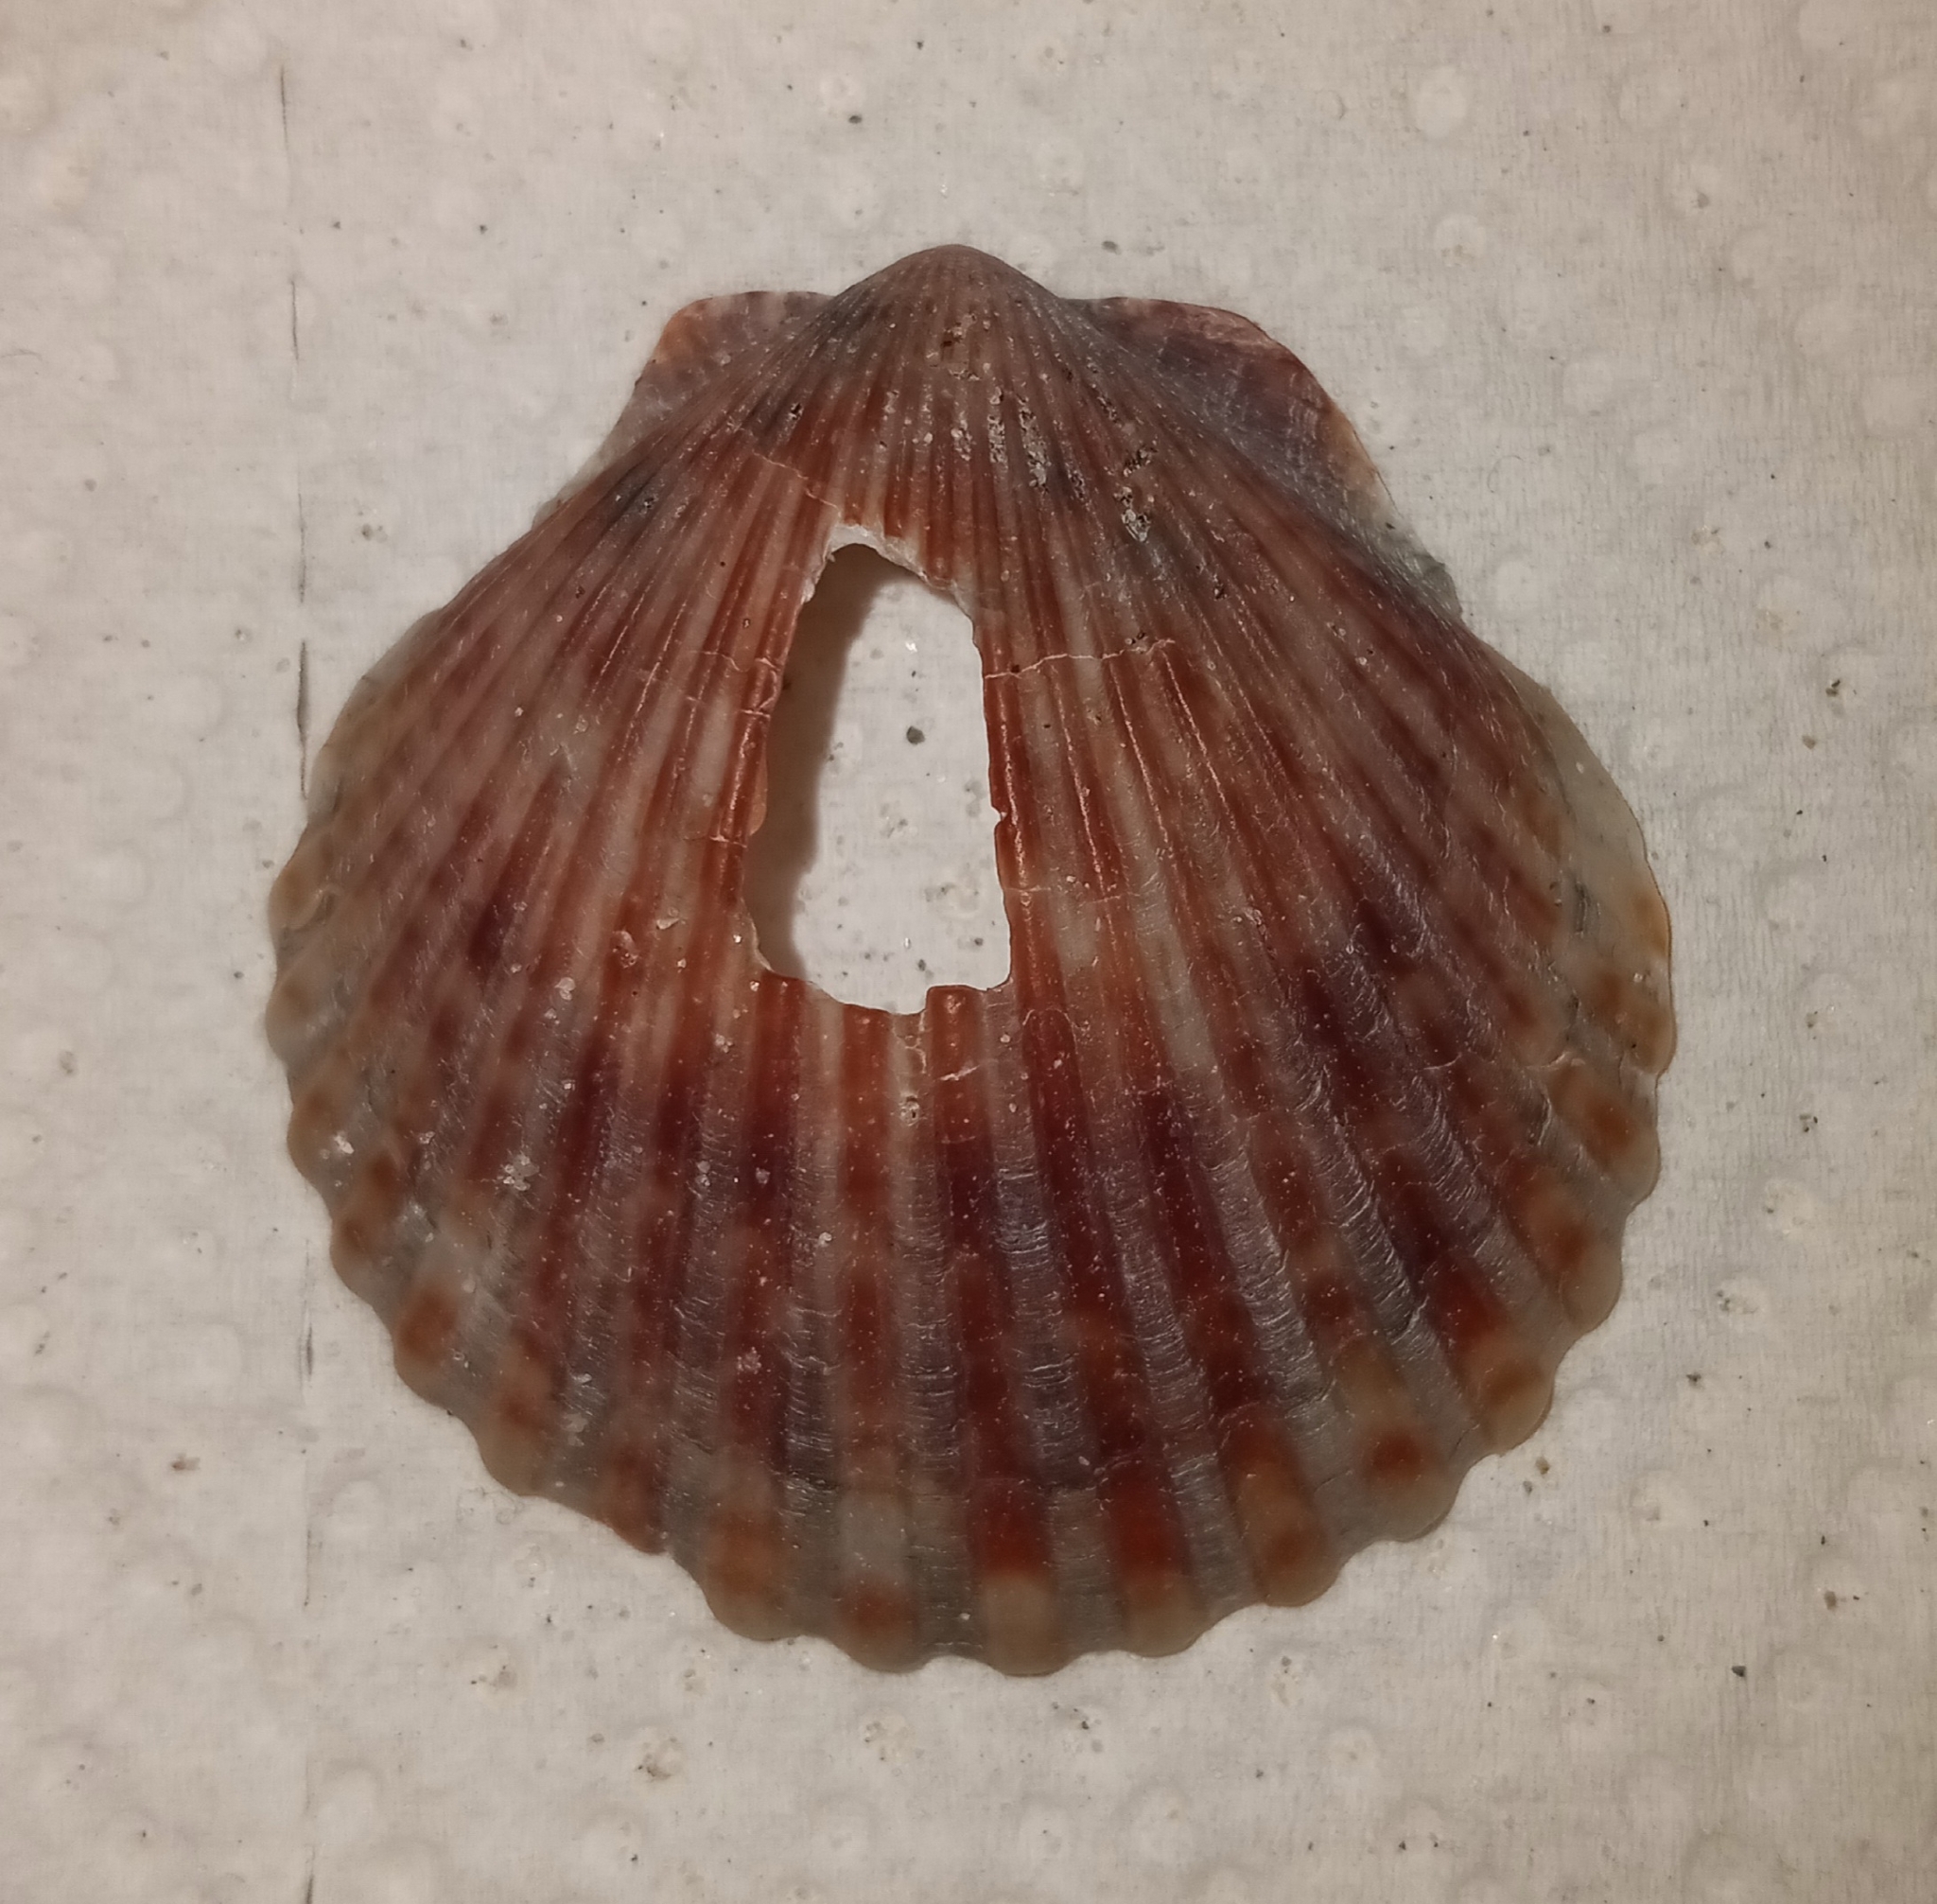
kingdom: Animalia
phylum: Mollusca
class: Bivalvia
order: Pectinida
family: Pectinidae
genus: Argopecten
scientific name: Argopecten irradians
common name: Atlantic bay scallop
